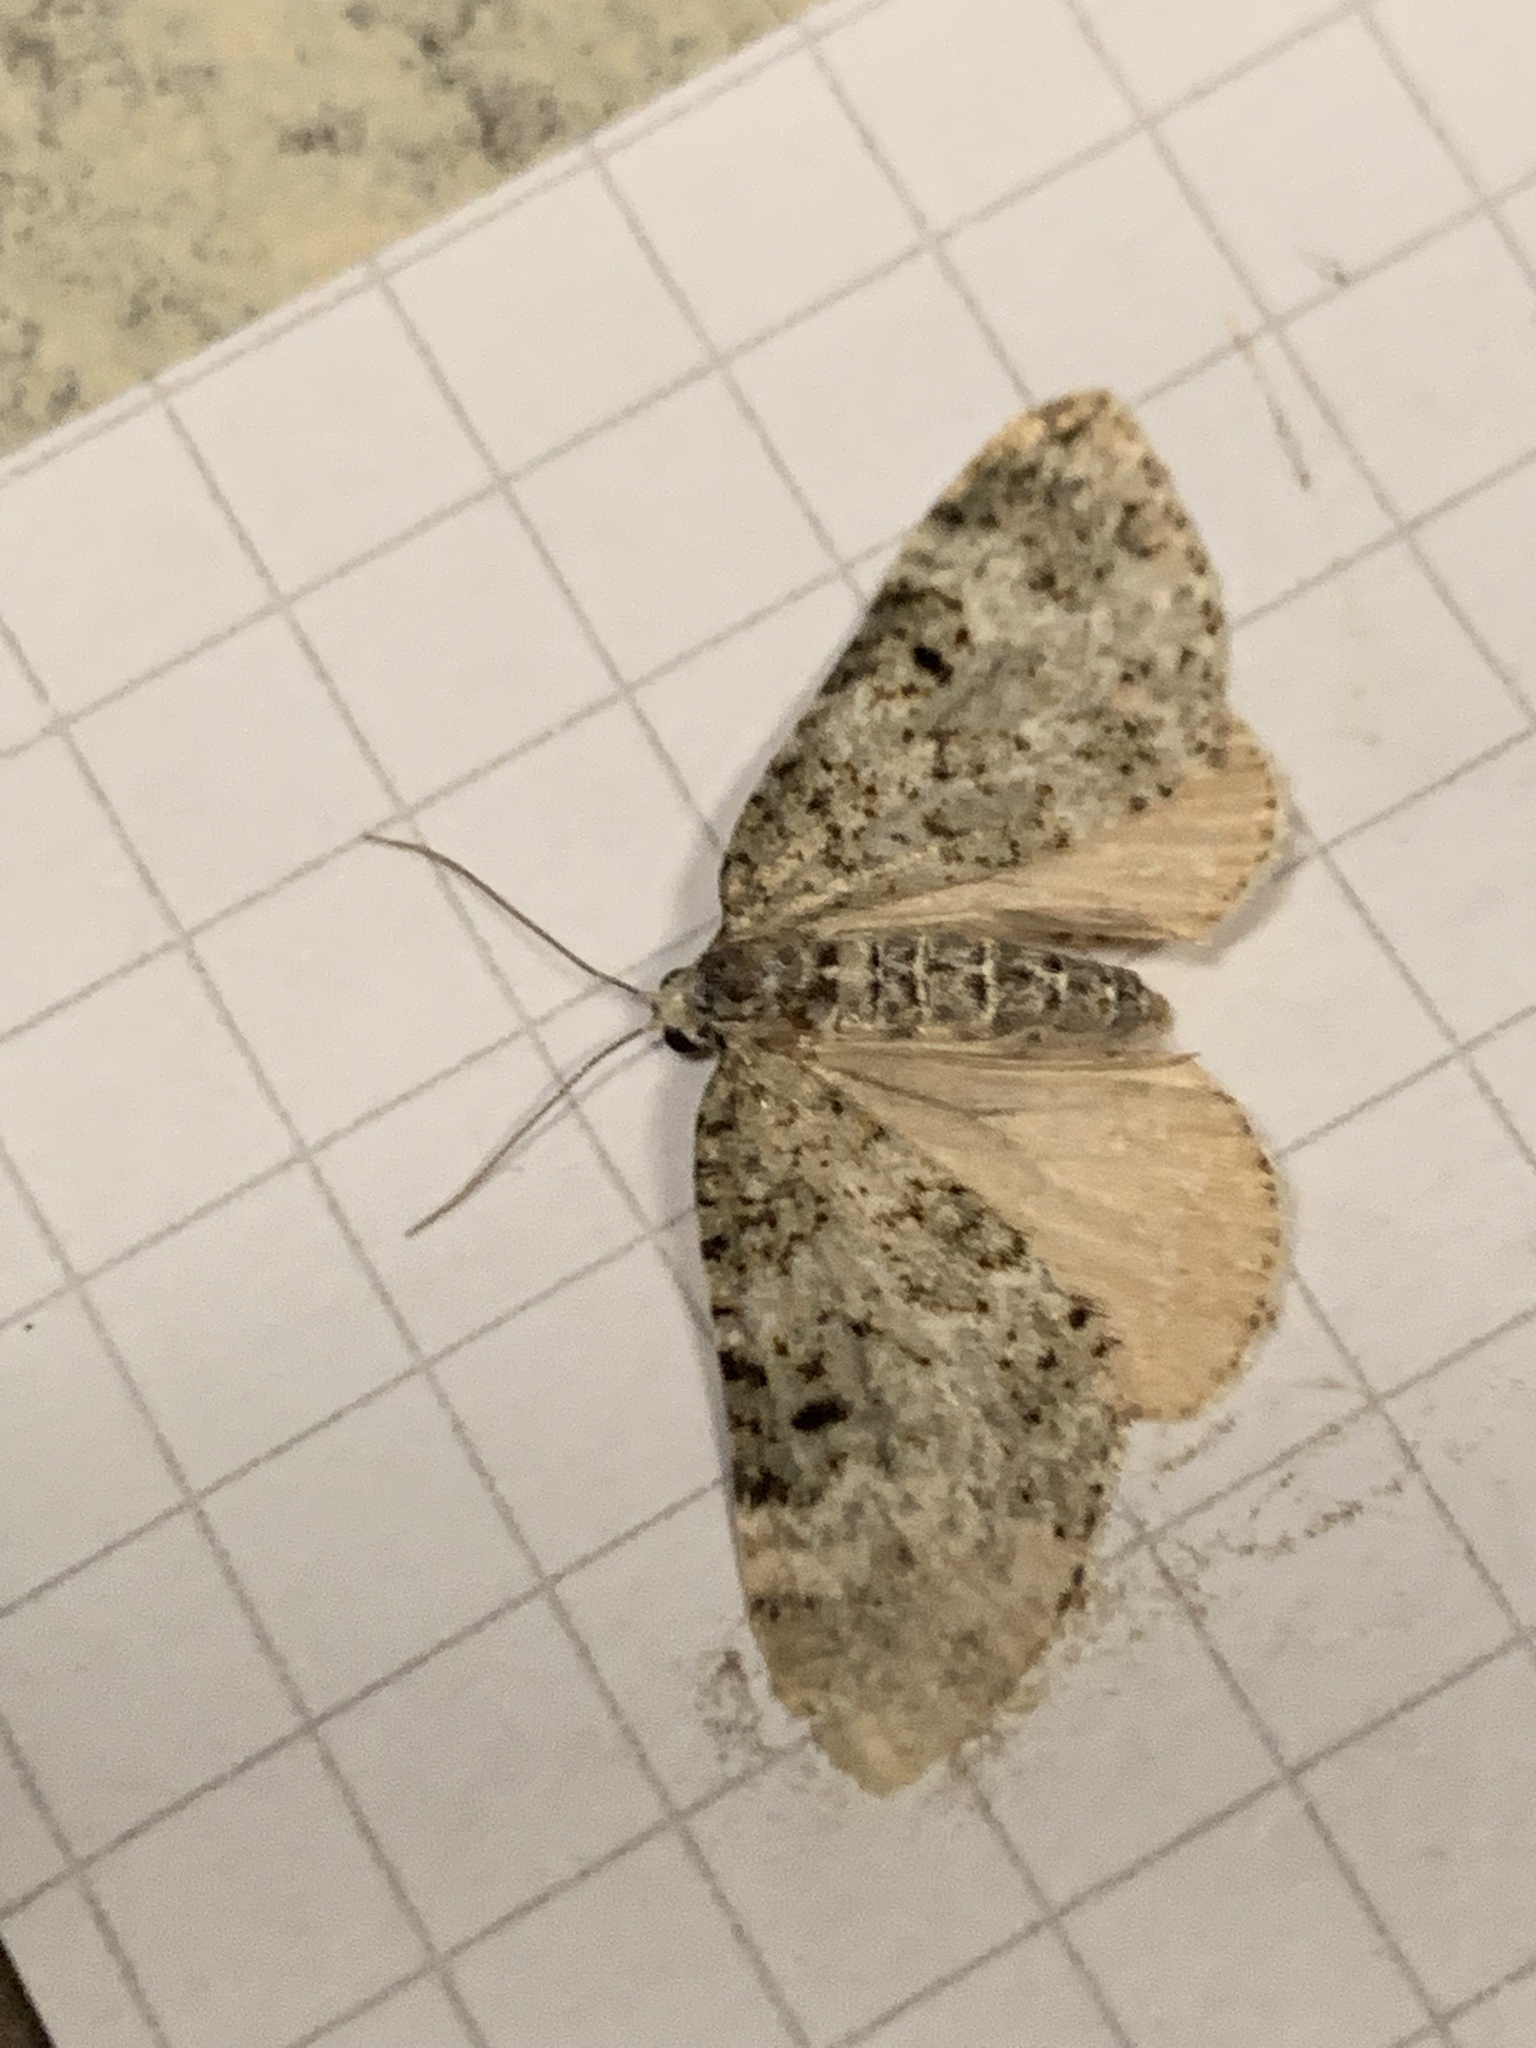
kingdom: Animalia
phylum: Arthropoda
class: Insecta
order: Lepidoptera
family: Geometridae
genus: Spargania
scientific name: Spargania magnoliata
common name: Double-banded carpet
